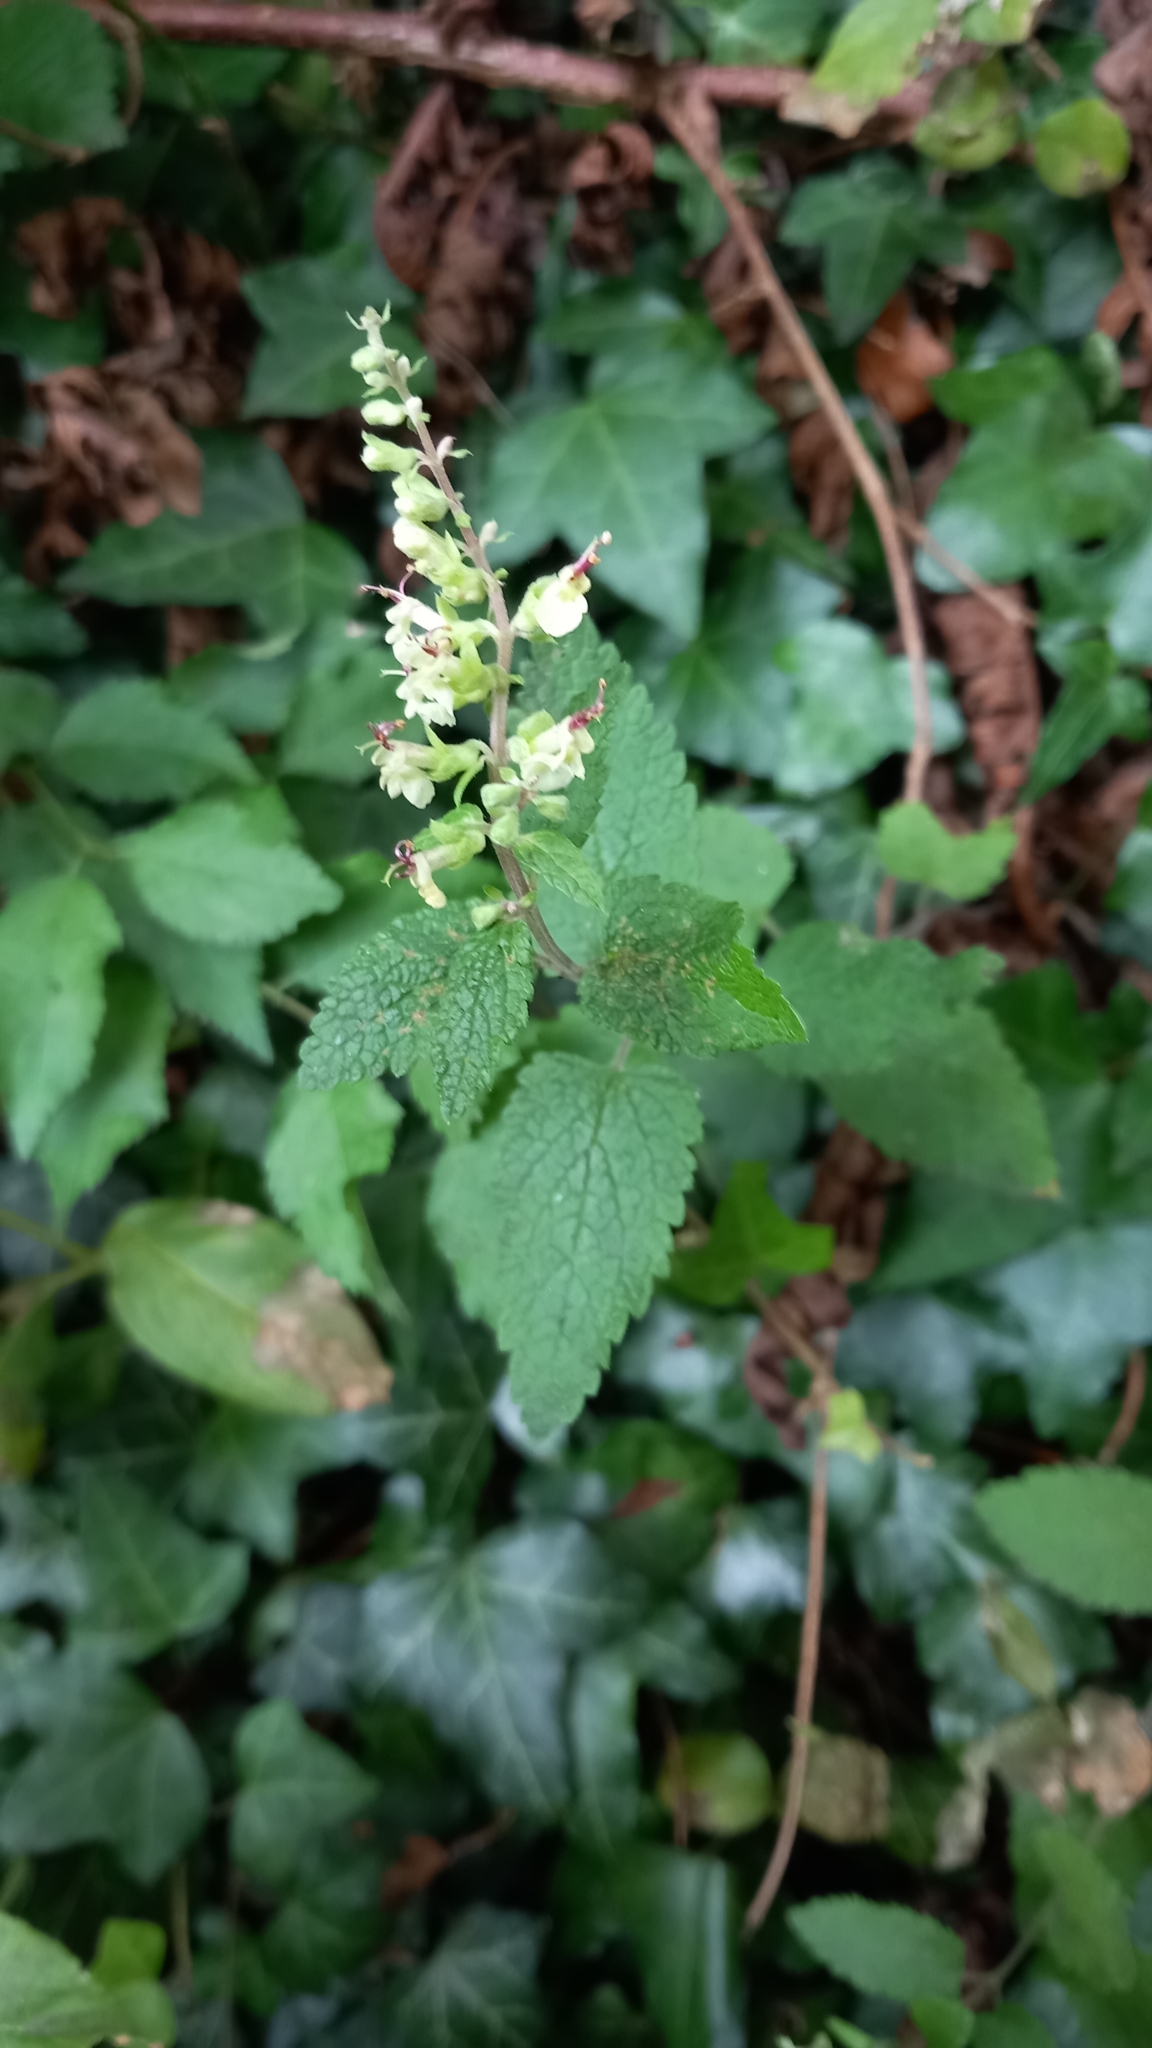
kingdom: Plantae
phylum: Tracheophyta
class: Magnoliopsida
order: Lamiales
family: Lamiaceae
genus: Teucrium
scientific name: Teucrium scorodonia
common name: Woodland germander
